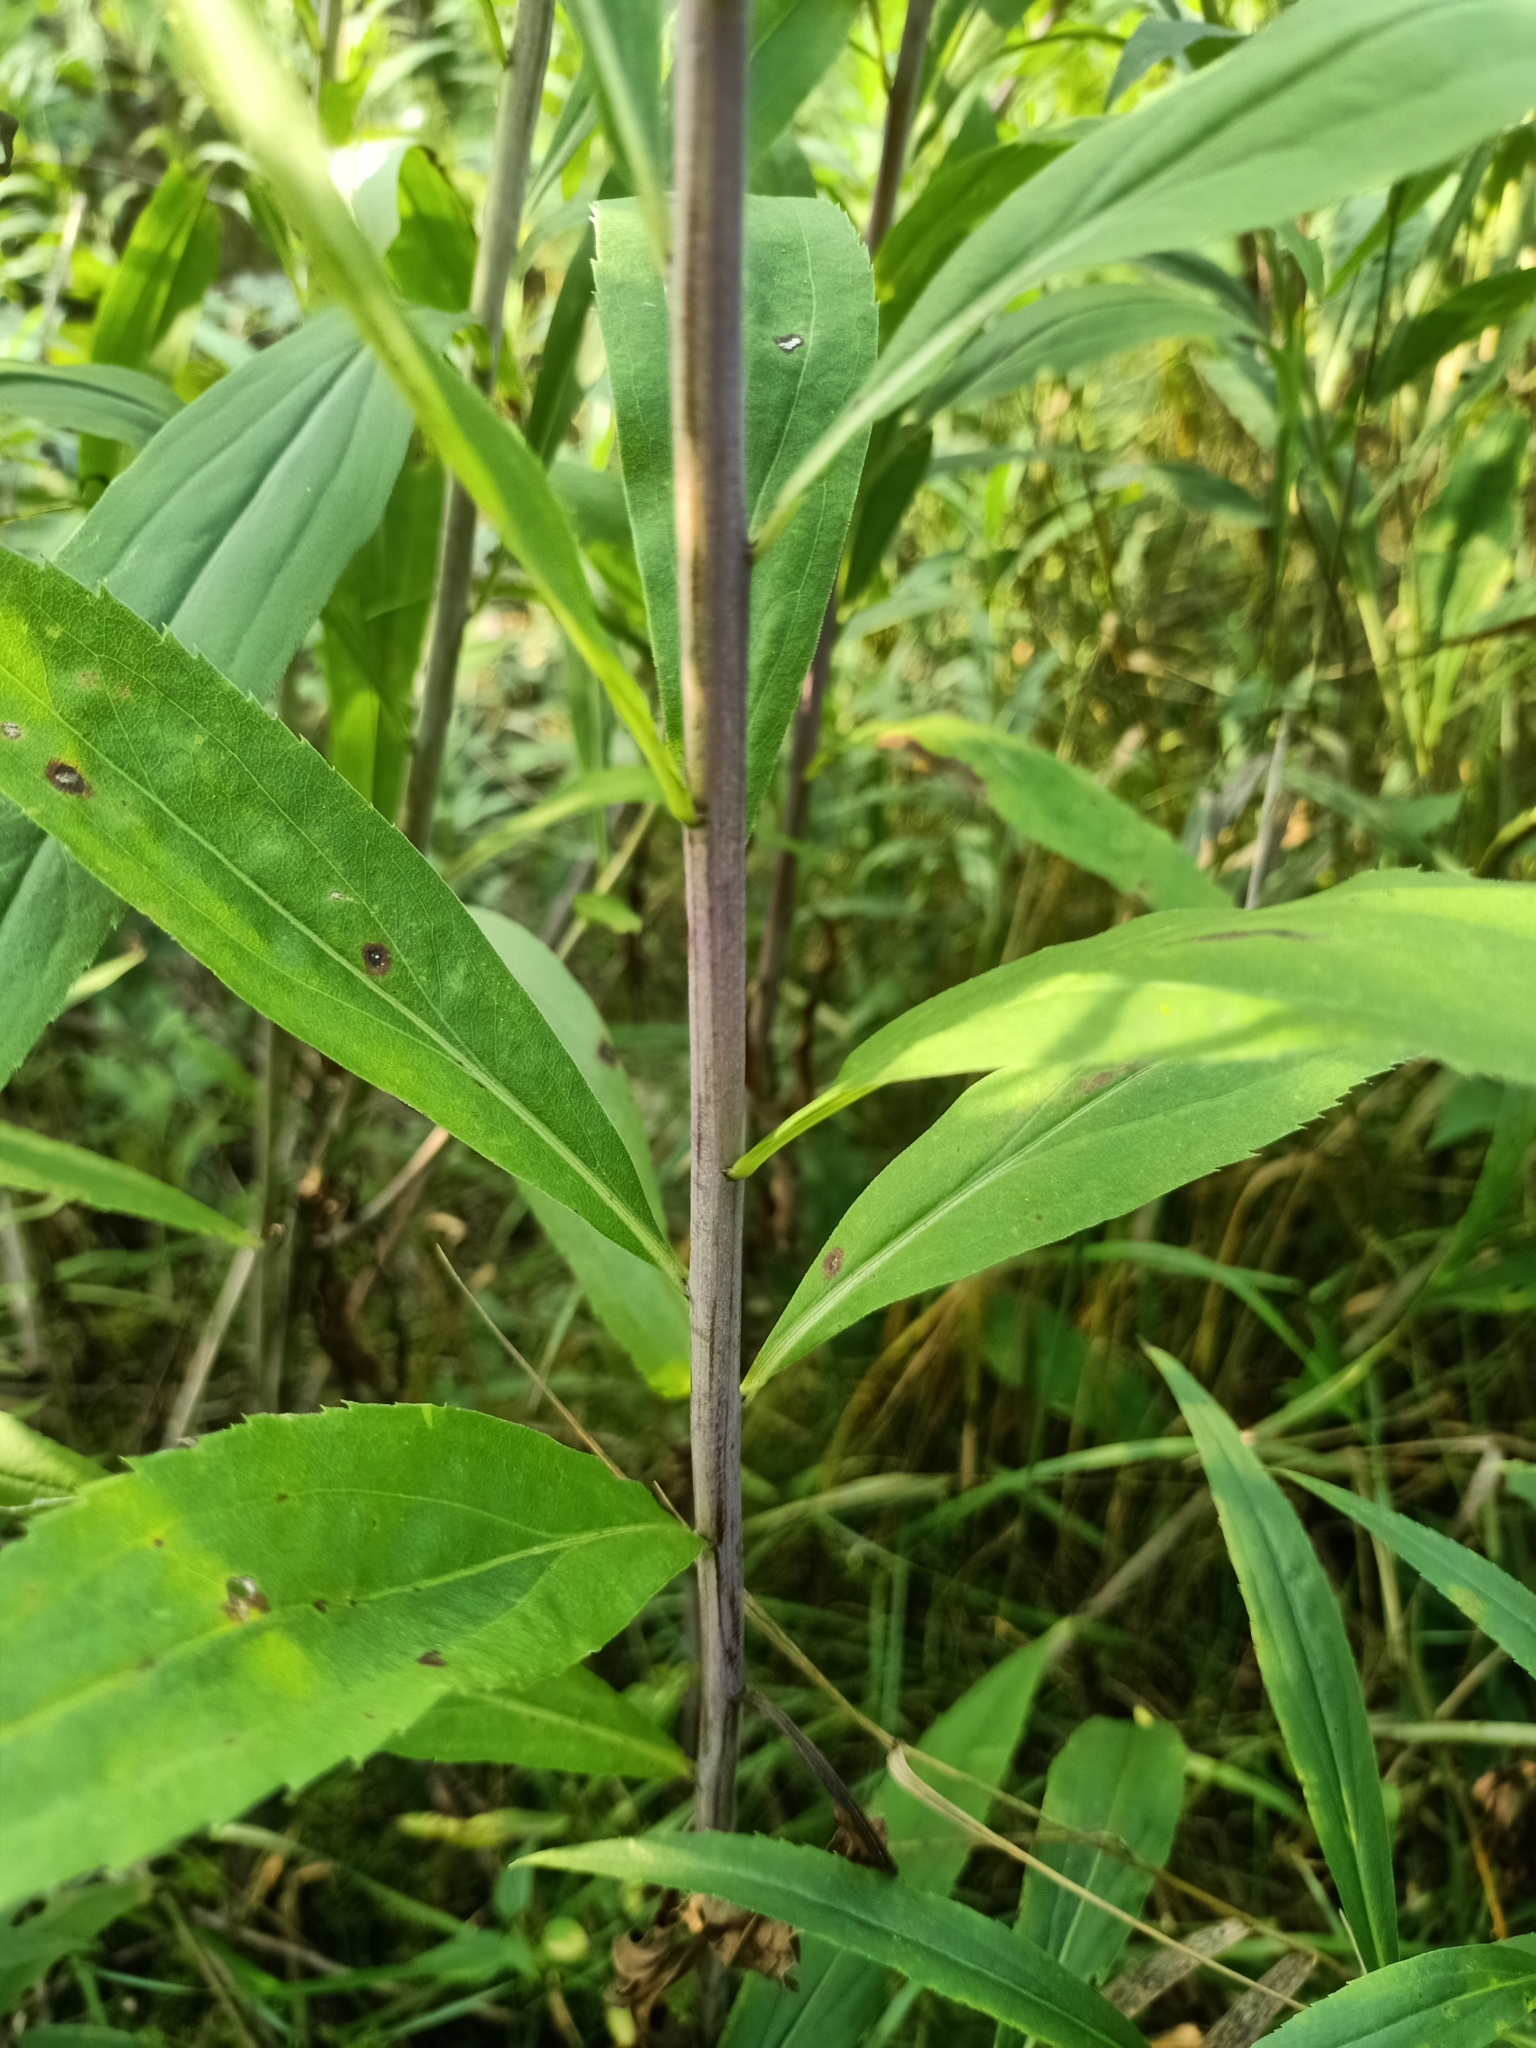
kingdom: Plantae
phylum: Tracheophyta
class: Magnoliopsida
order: Asterales
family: Asteraceae
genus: Solidago
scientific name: Solidago gigantea
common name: Giant goldenrod
